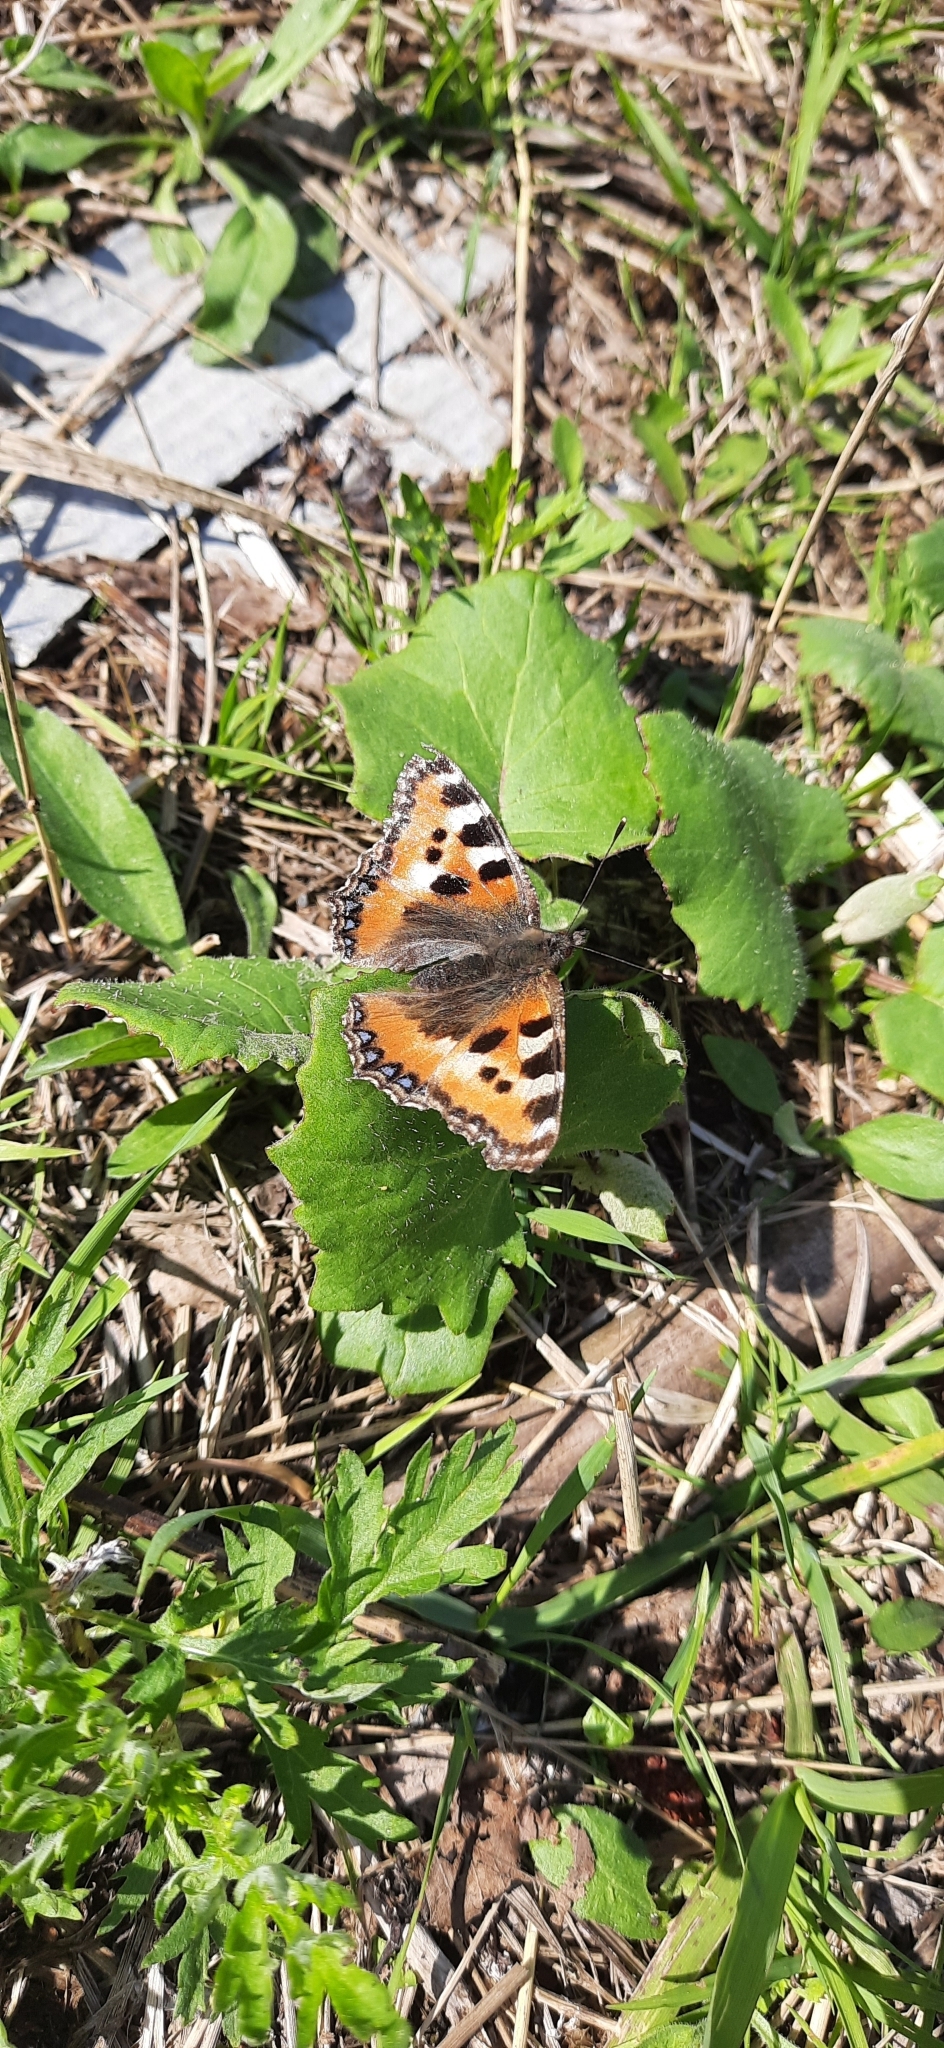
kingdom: Animalia
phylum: Arthropoda
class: Insecta
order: Lepidoptera
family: Nymphalidae
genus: Aglais
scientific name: Aglais urticae
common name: Small tortoiseshell
